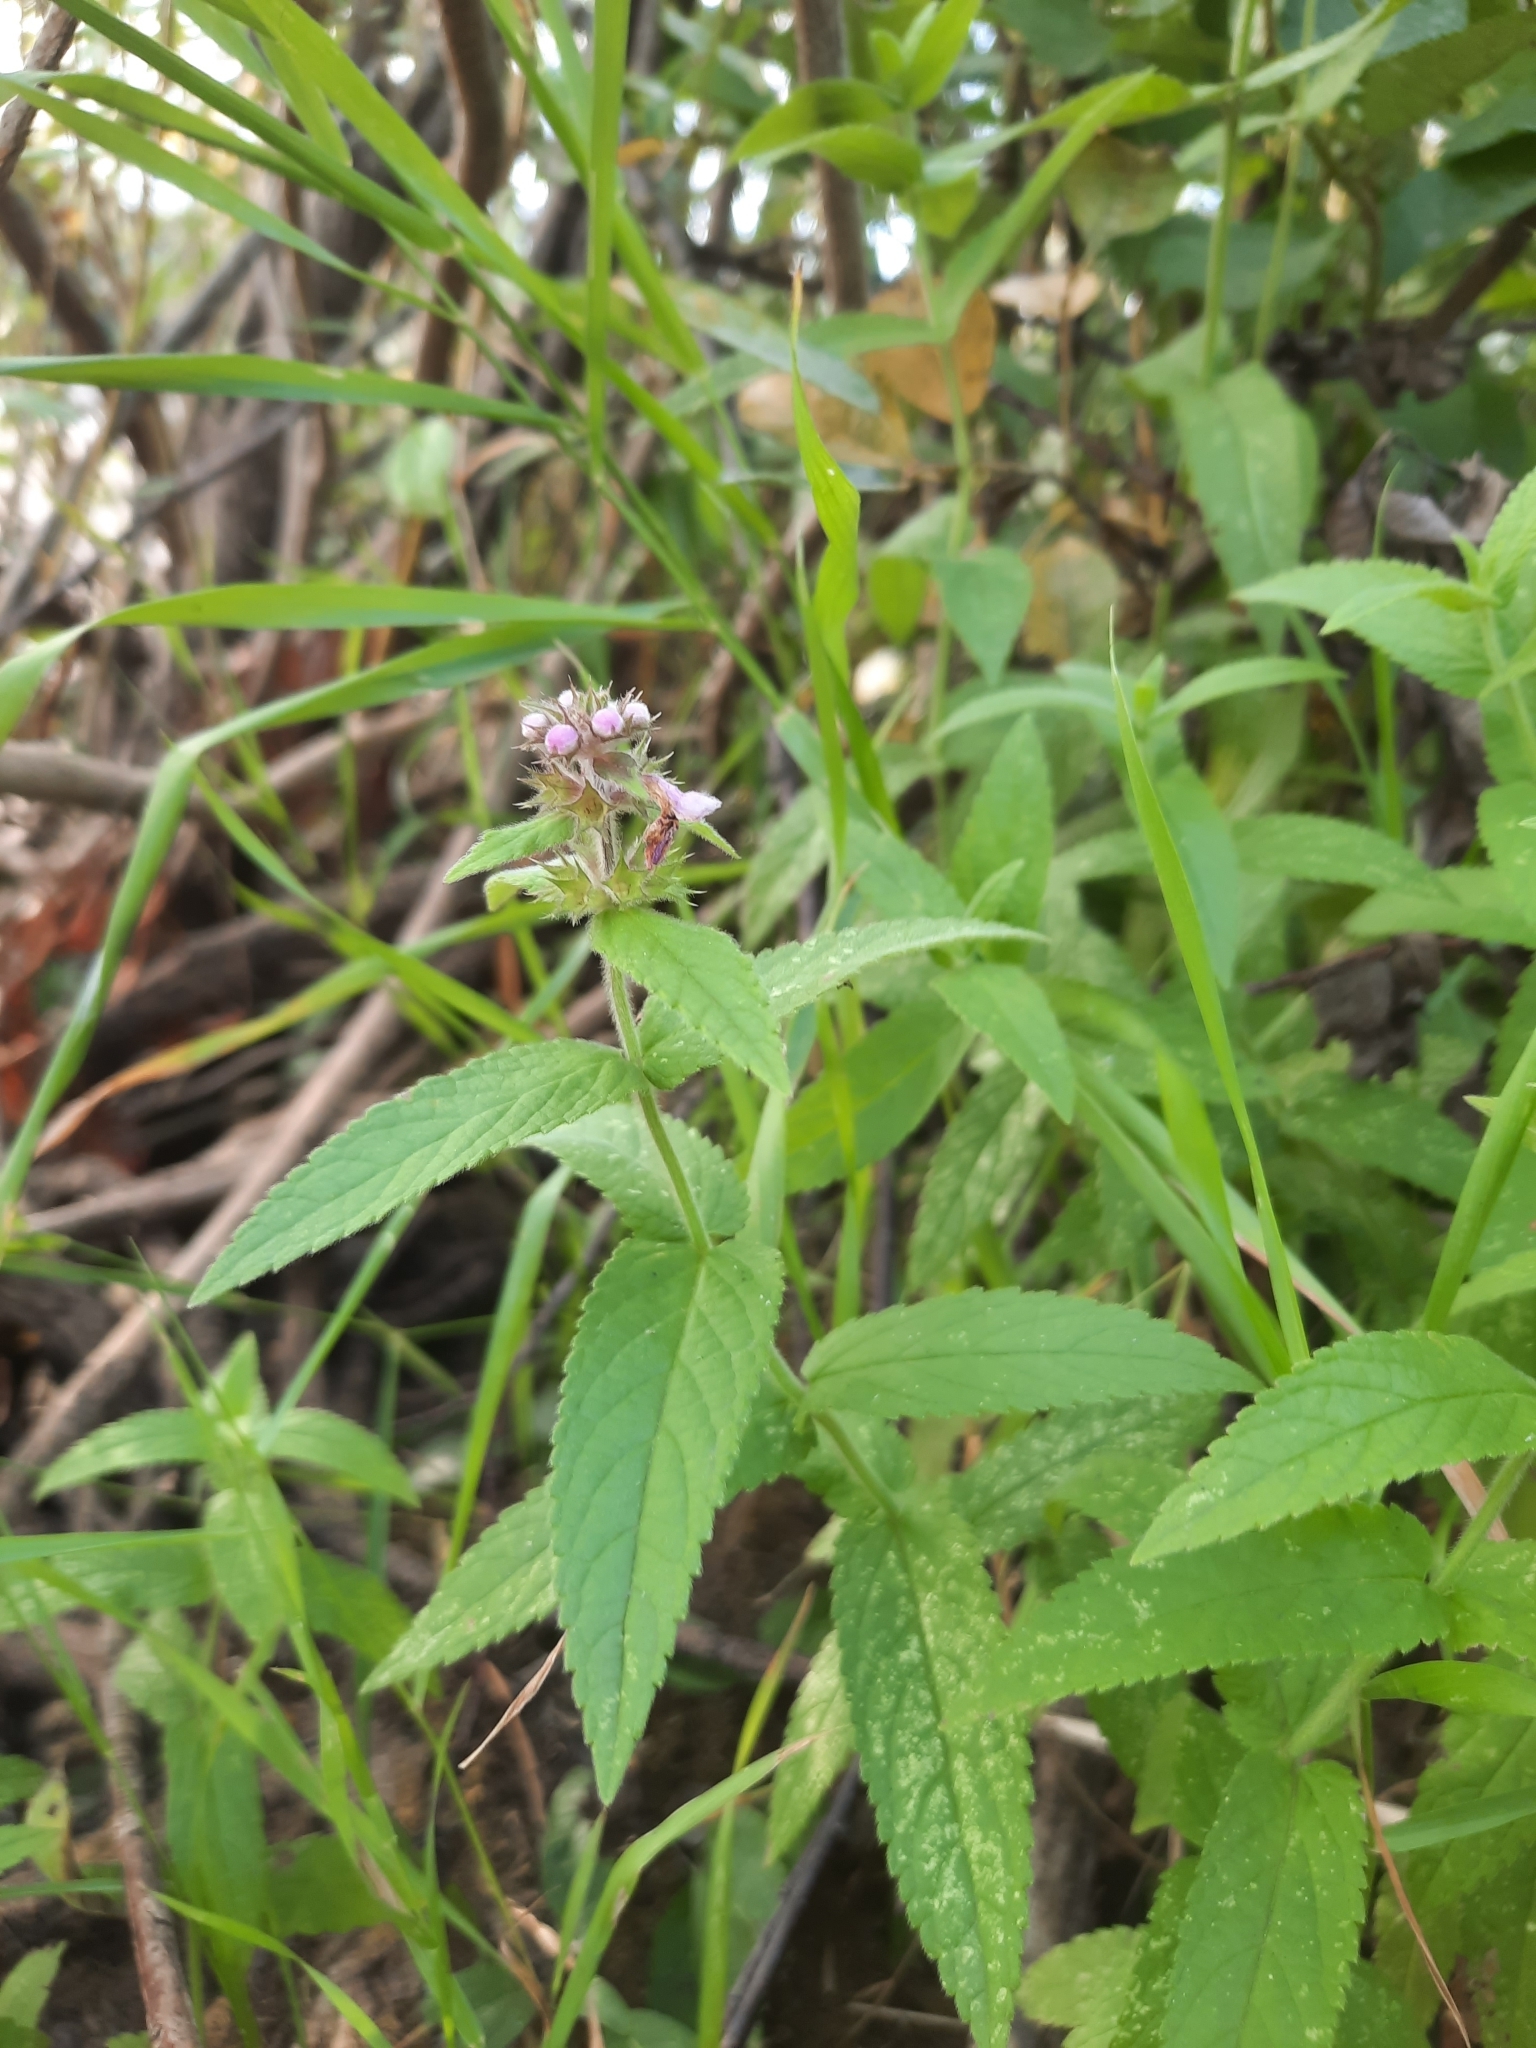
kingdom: Plantae
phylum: Tracheophyta
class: Magnoliopsida
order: Lamiales
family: Lamiaceae
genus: Stachys
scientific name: Stachys palustris
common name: Marsh woundwort
